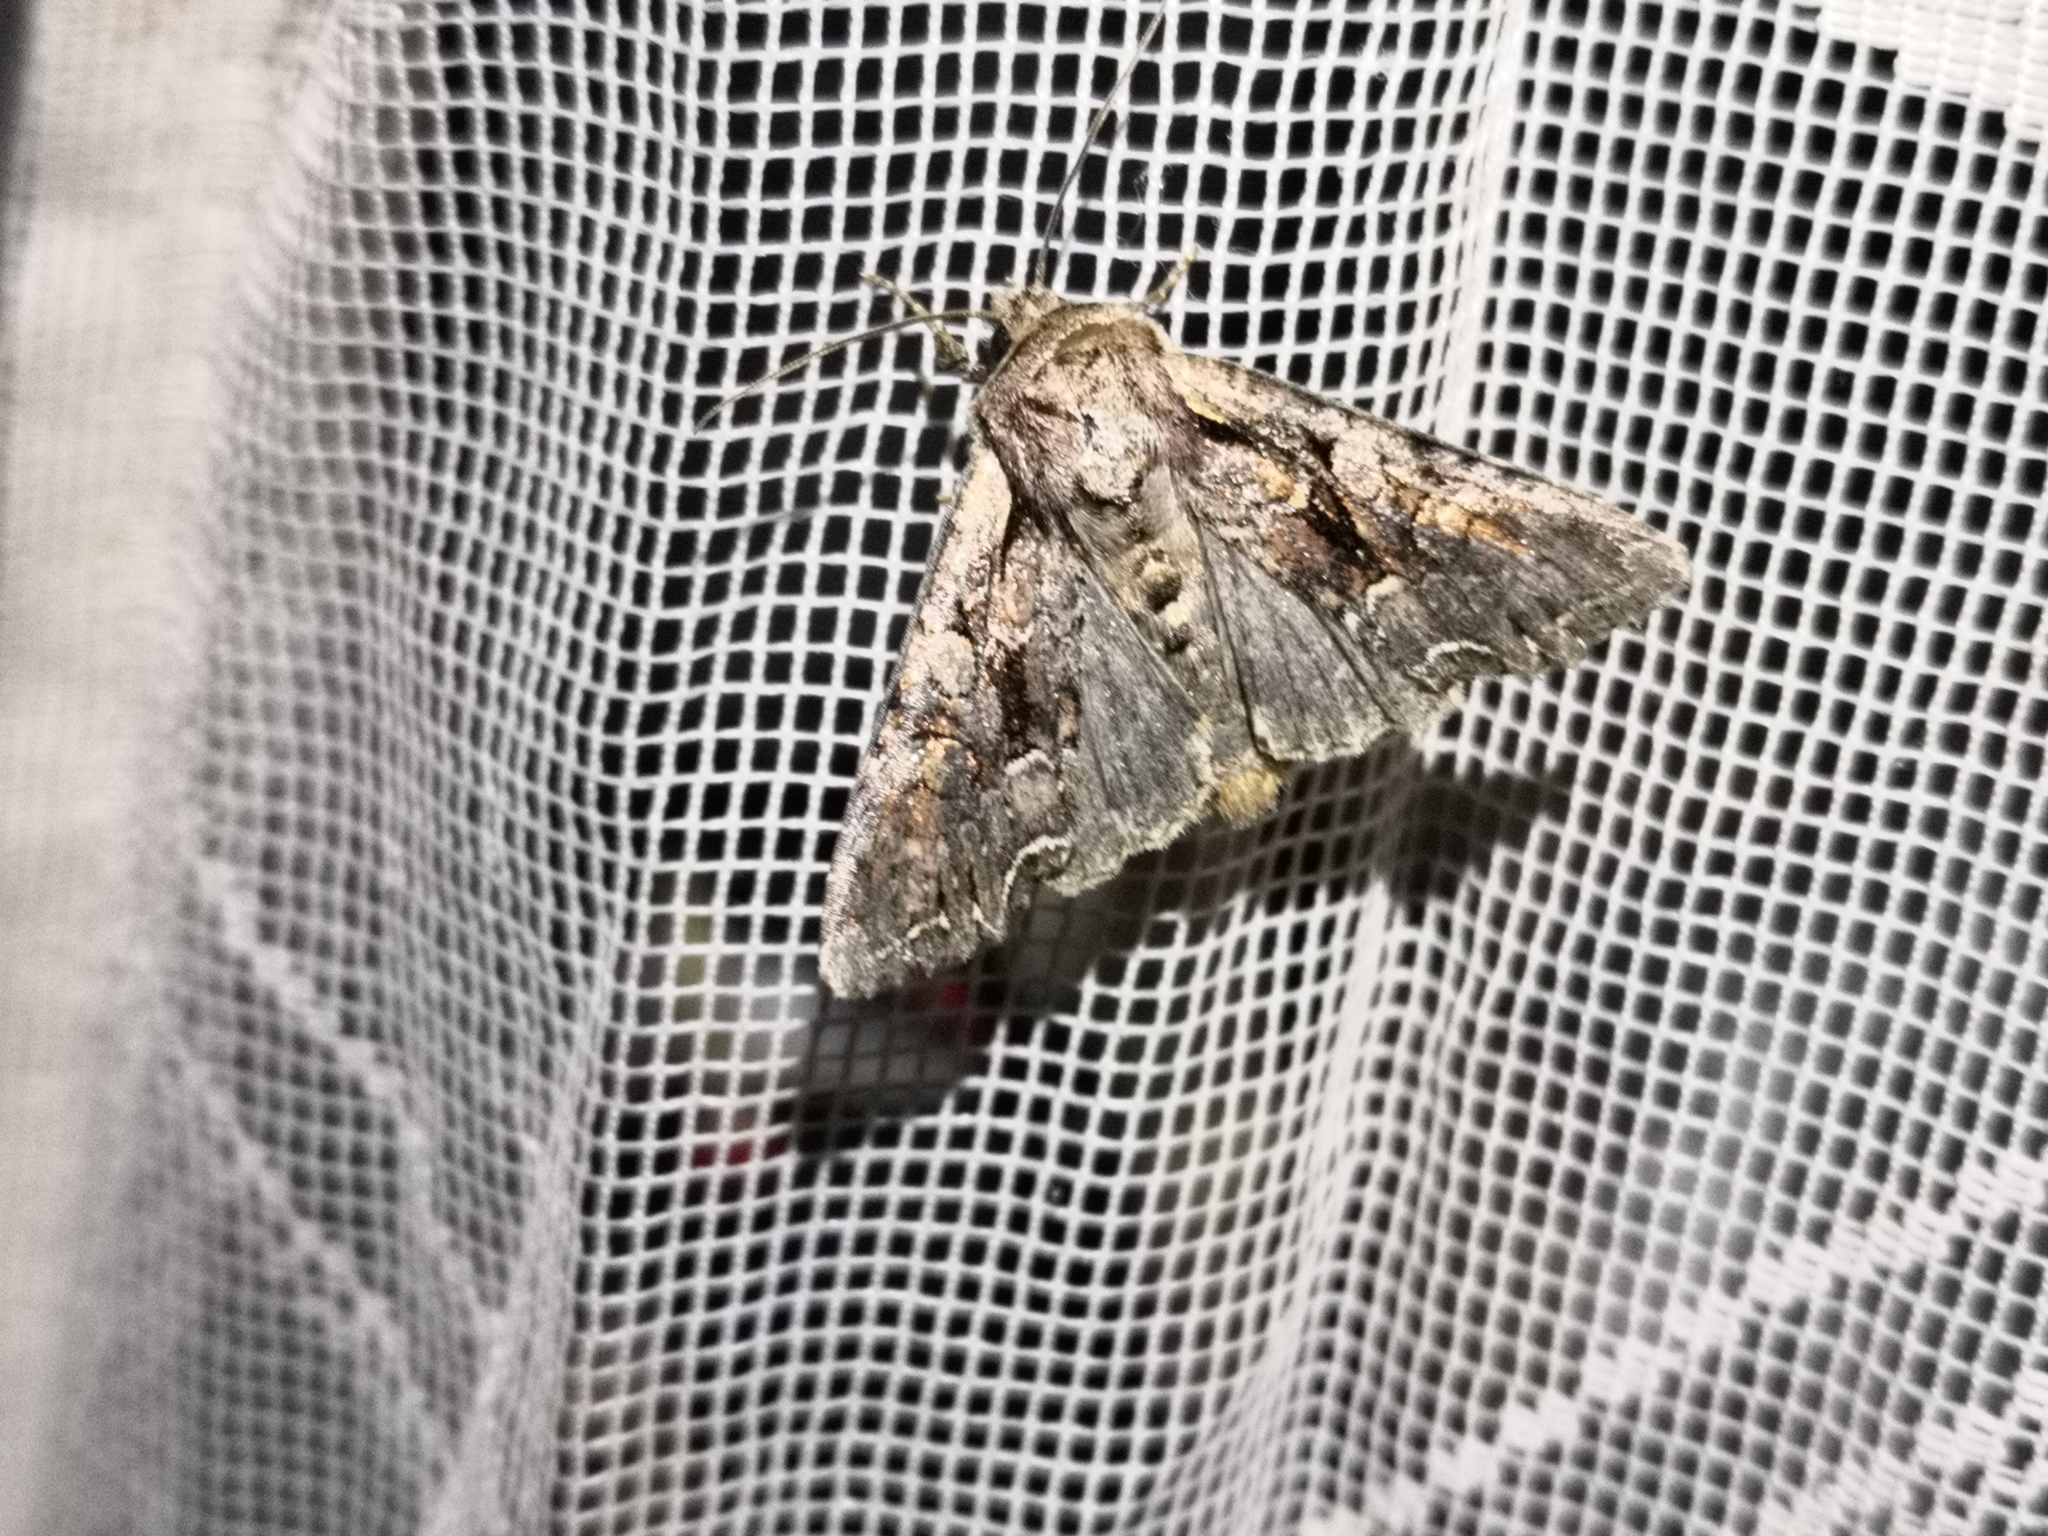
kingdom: Animalia
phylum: Arthropoda
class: Insecta
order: Lepidoptera
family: Noctuidae
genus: Lacanobia
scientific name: Lacanobia thalassina
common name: Pale-shouldered brocade
